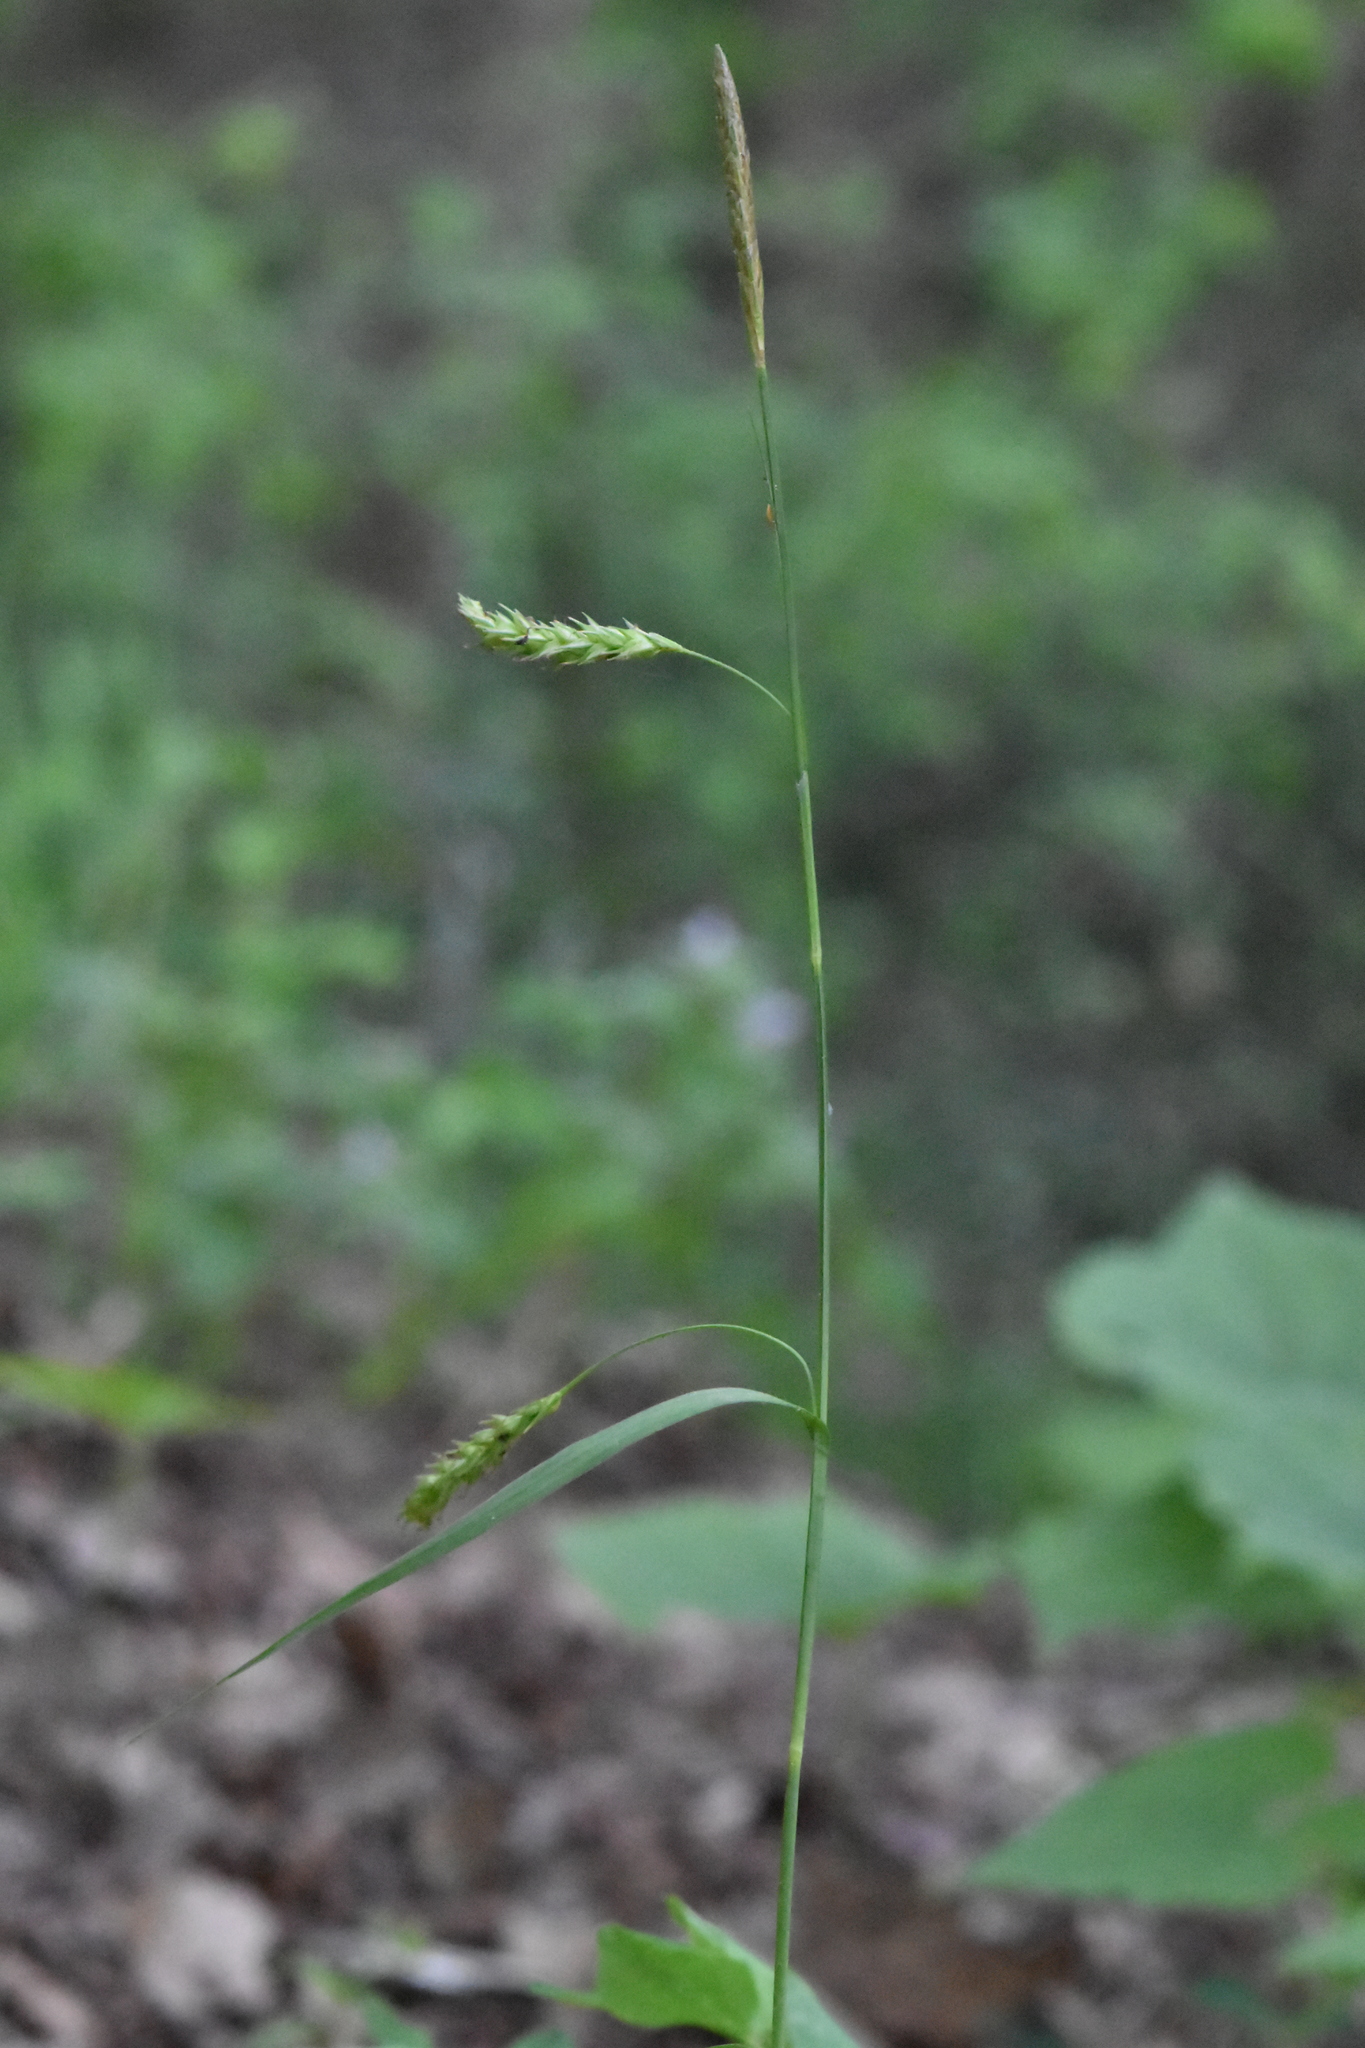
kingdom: Plantae
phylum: Tracheophyta
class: Liliopsida
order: Poales
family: Cyperaceae
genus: Carex
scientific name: Carex sylvatica
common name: Wood-sedge
